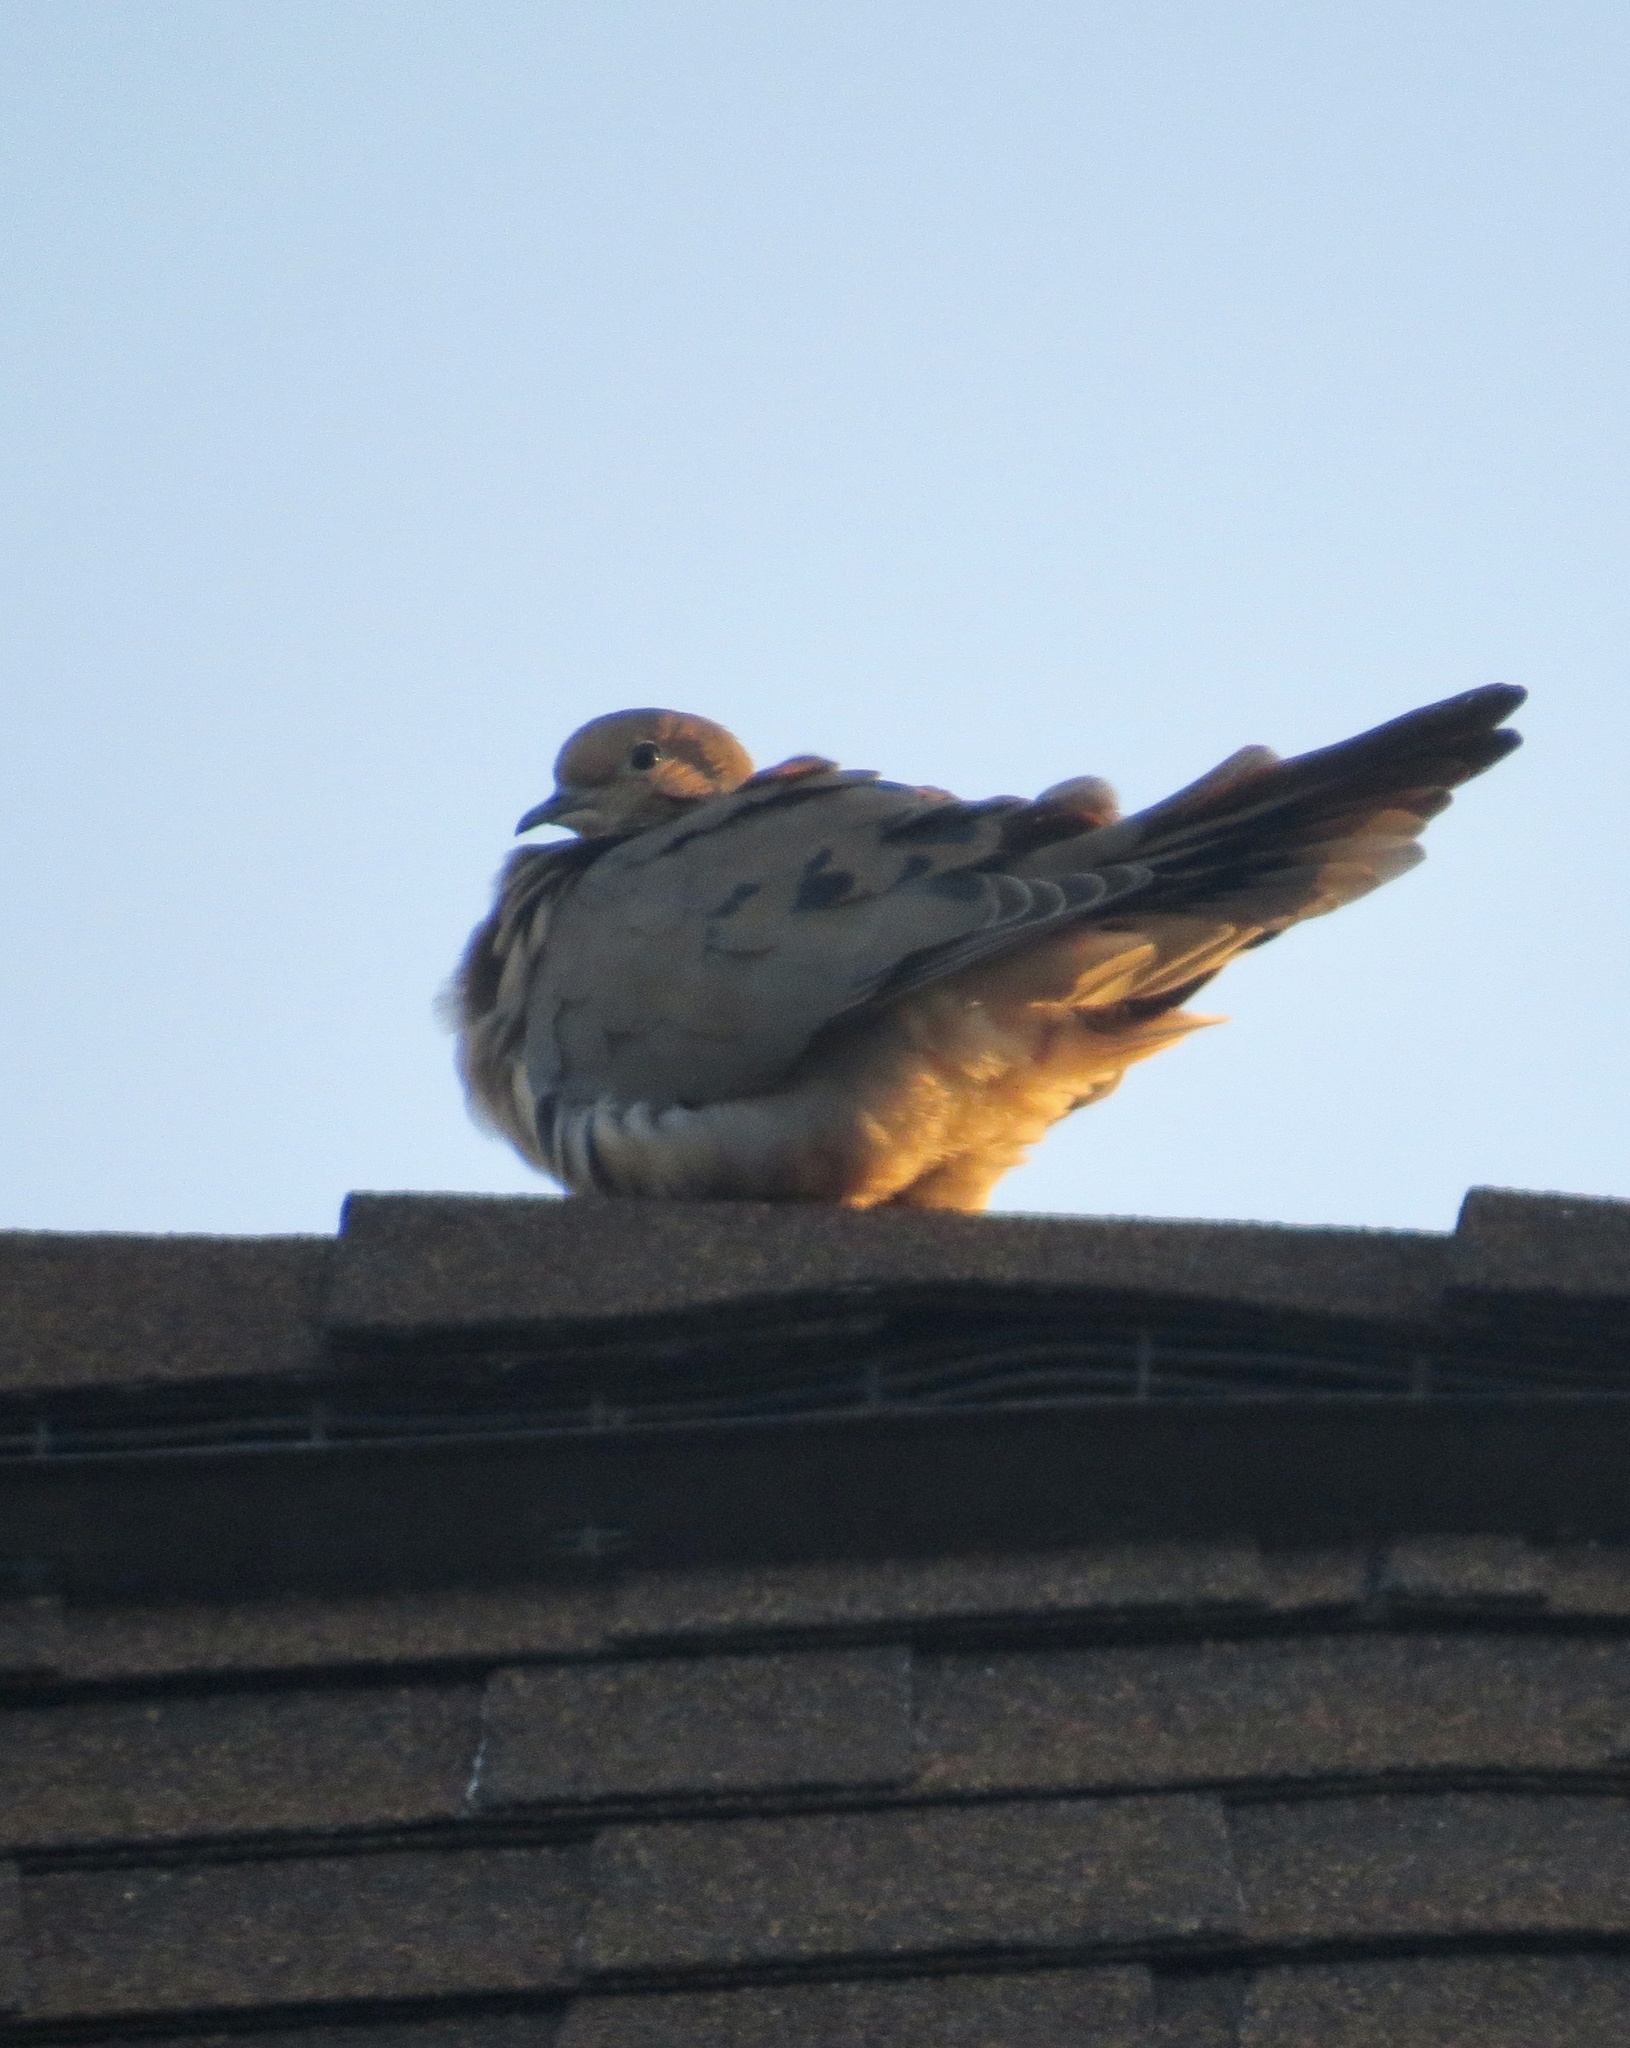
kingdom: Animalia
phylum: Chordata
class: Aves
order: Columbiformes
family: Columbidae
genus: Zenaida
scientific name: Zenaida macroura
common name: Mourning dove
